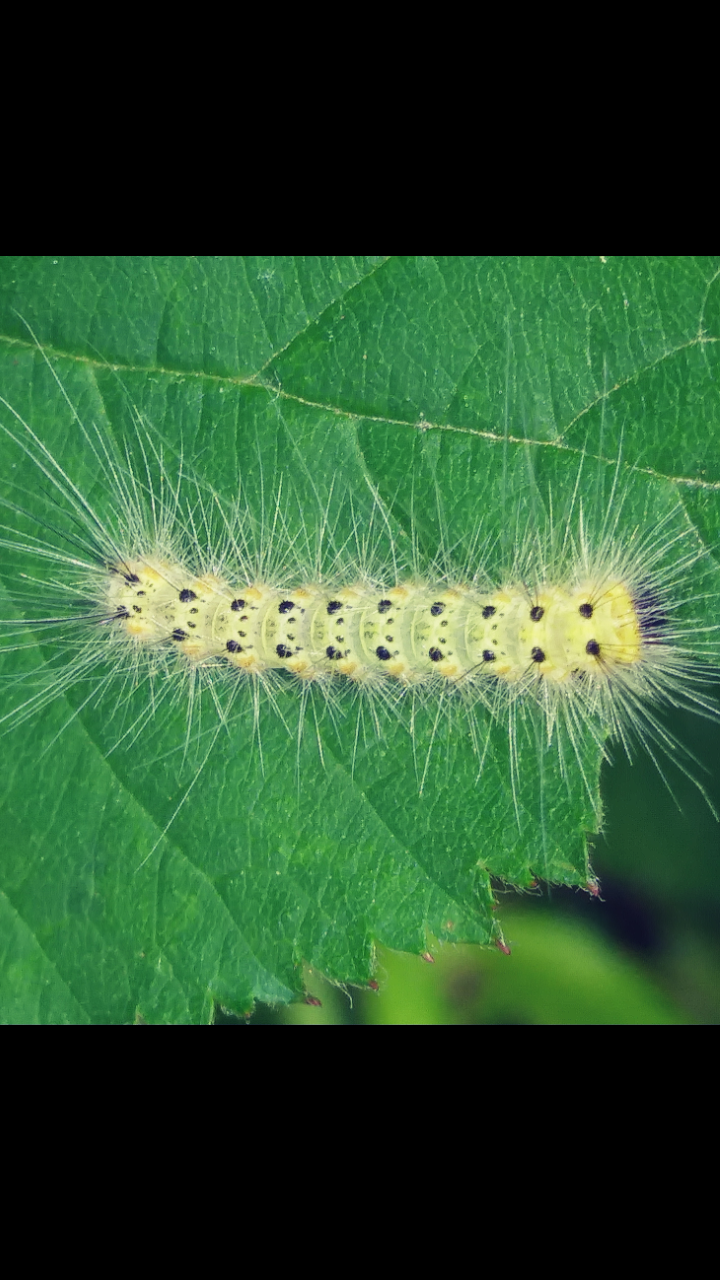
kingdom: Animalia
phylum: Arthropoda
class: Insecta
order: Lepidoptera
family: Erebidae
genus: Hyphantria
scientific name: Hyphantria cunea
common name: American white moth
